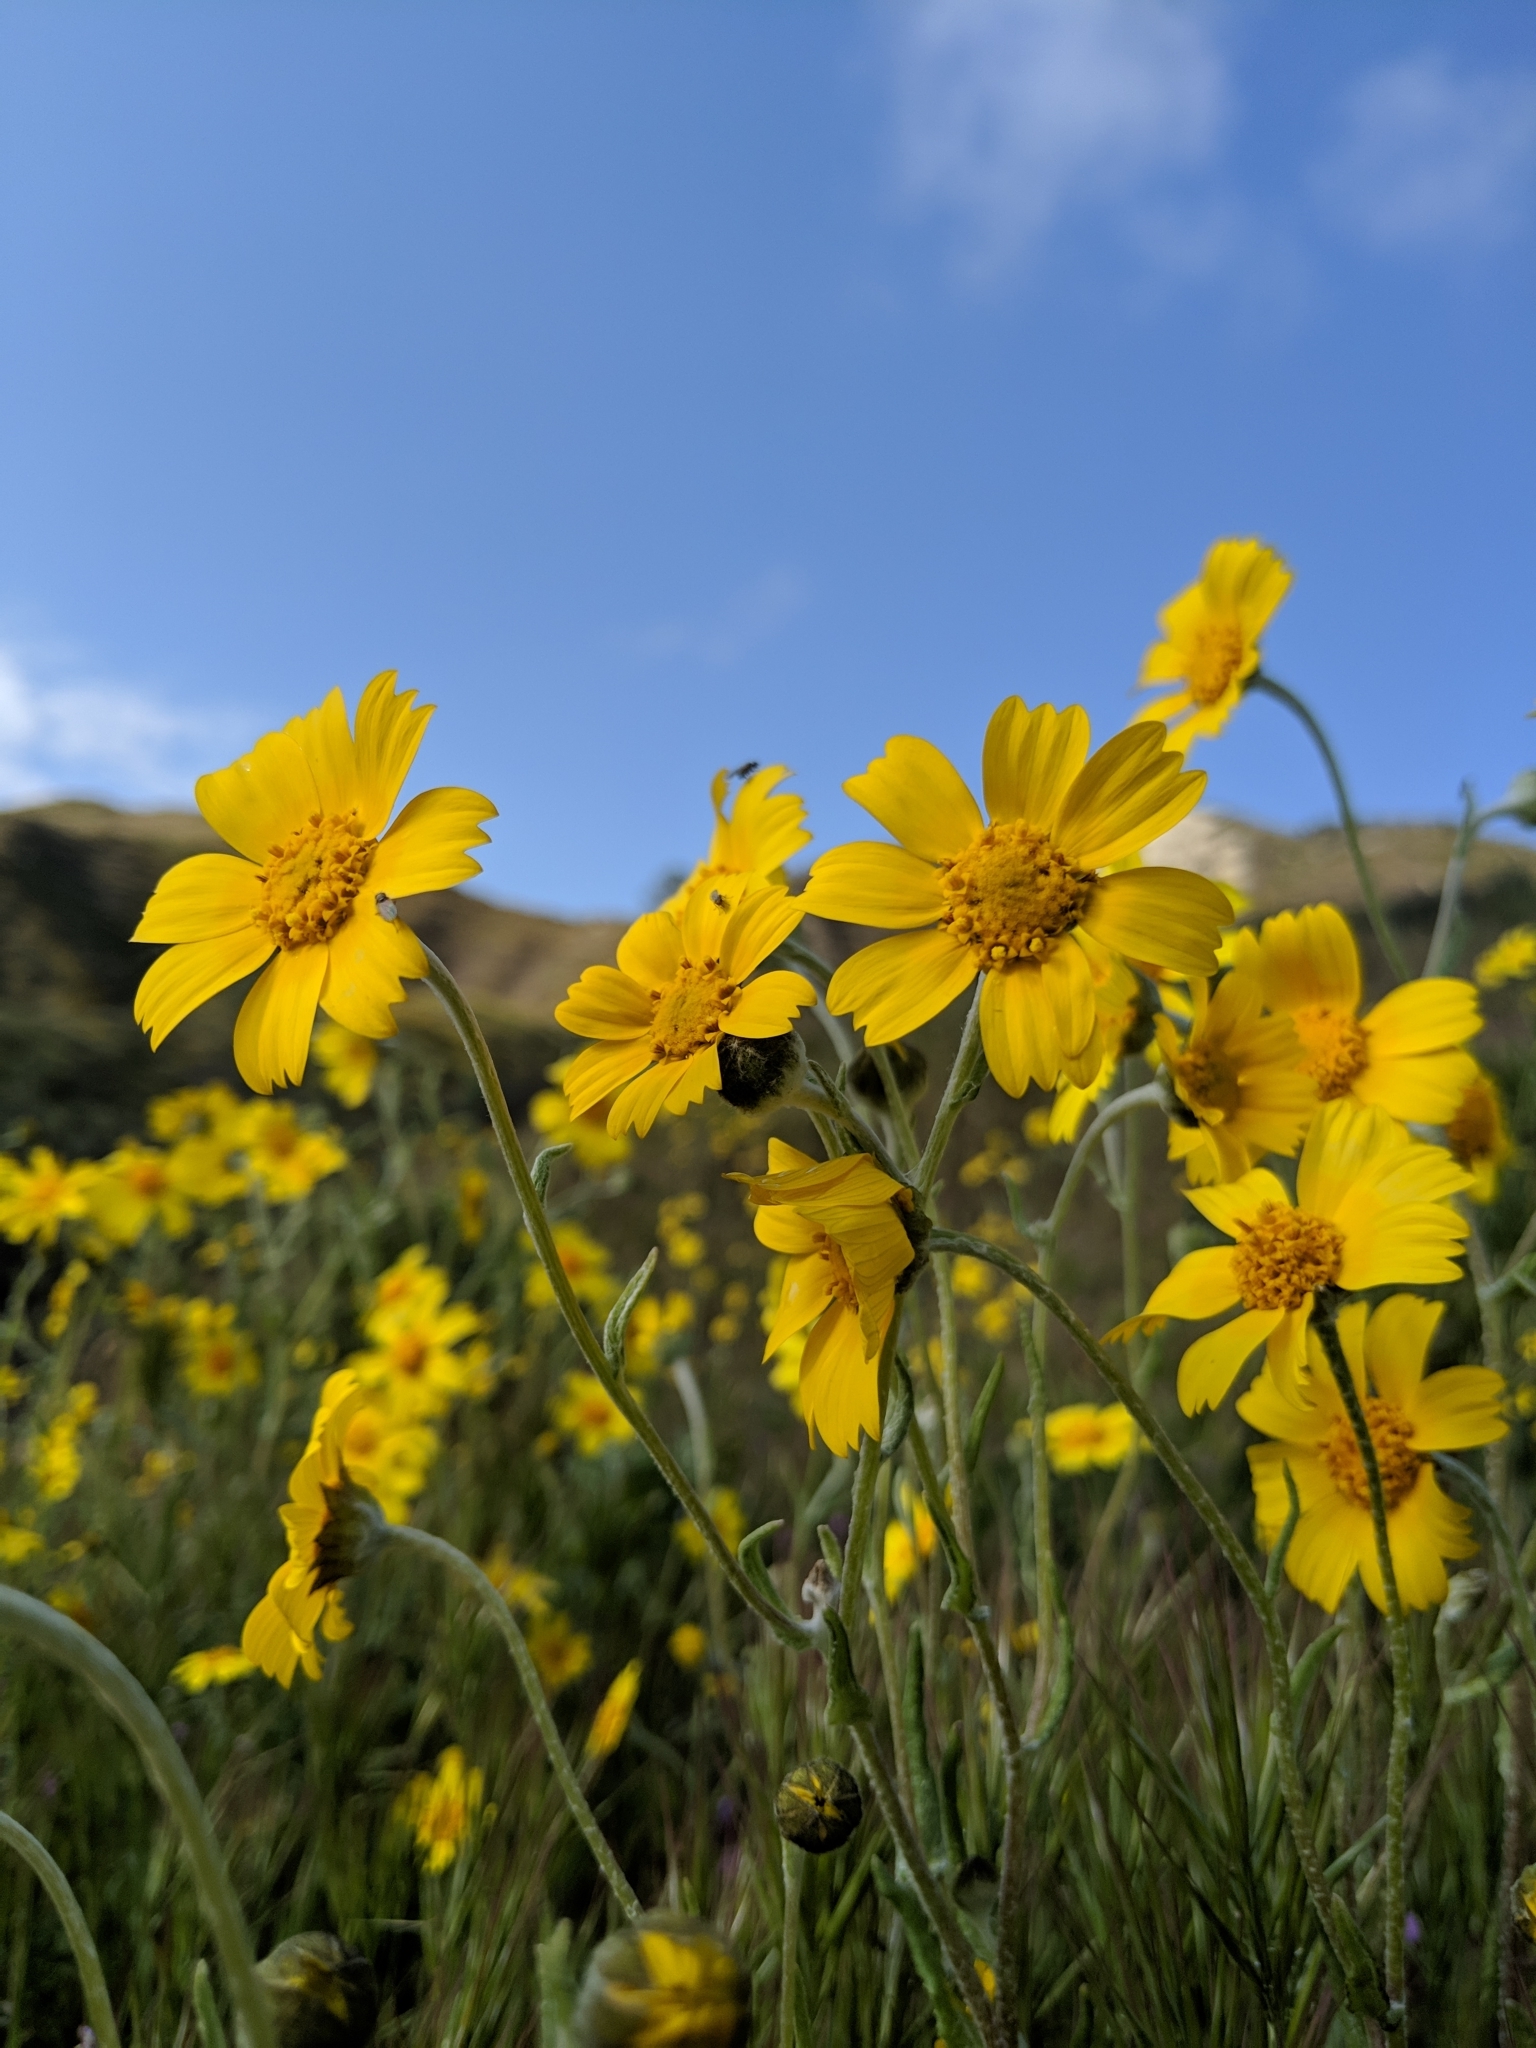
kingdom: Plantae
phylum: Tracheophyta
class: Magnoliopsida
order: Asterales
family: Asteraceae
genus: Monolopia
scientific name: Monolopia lanceolata
